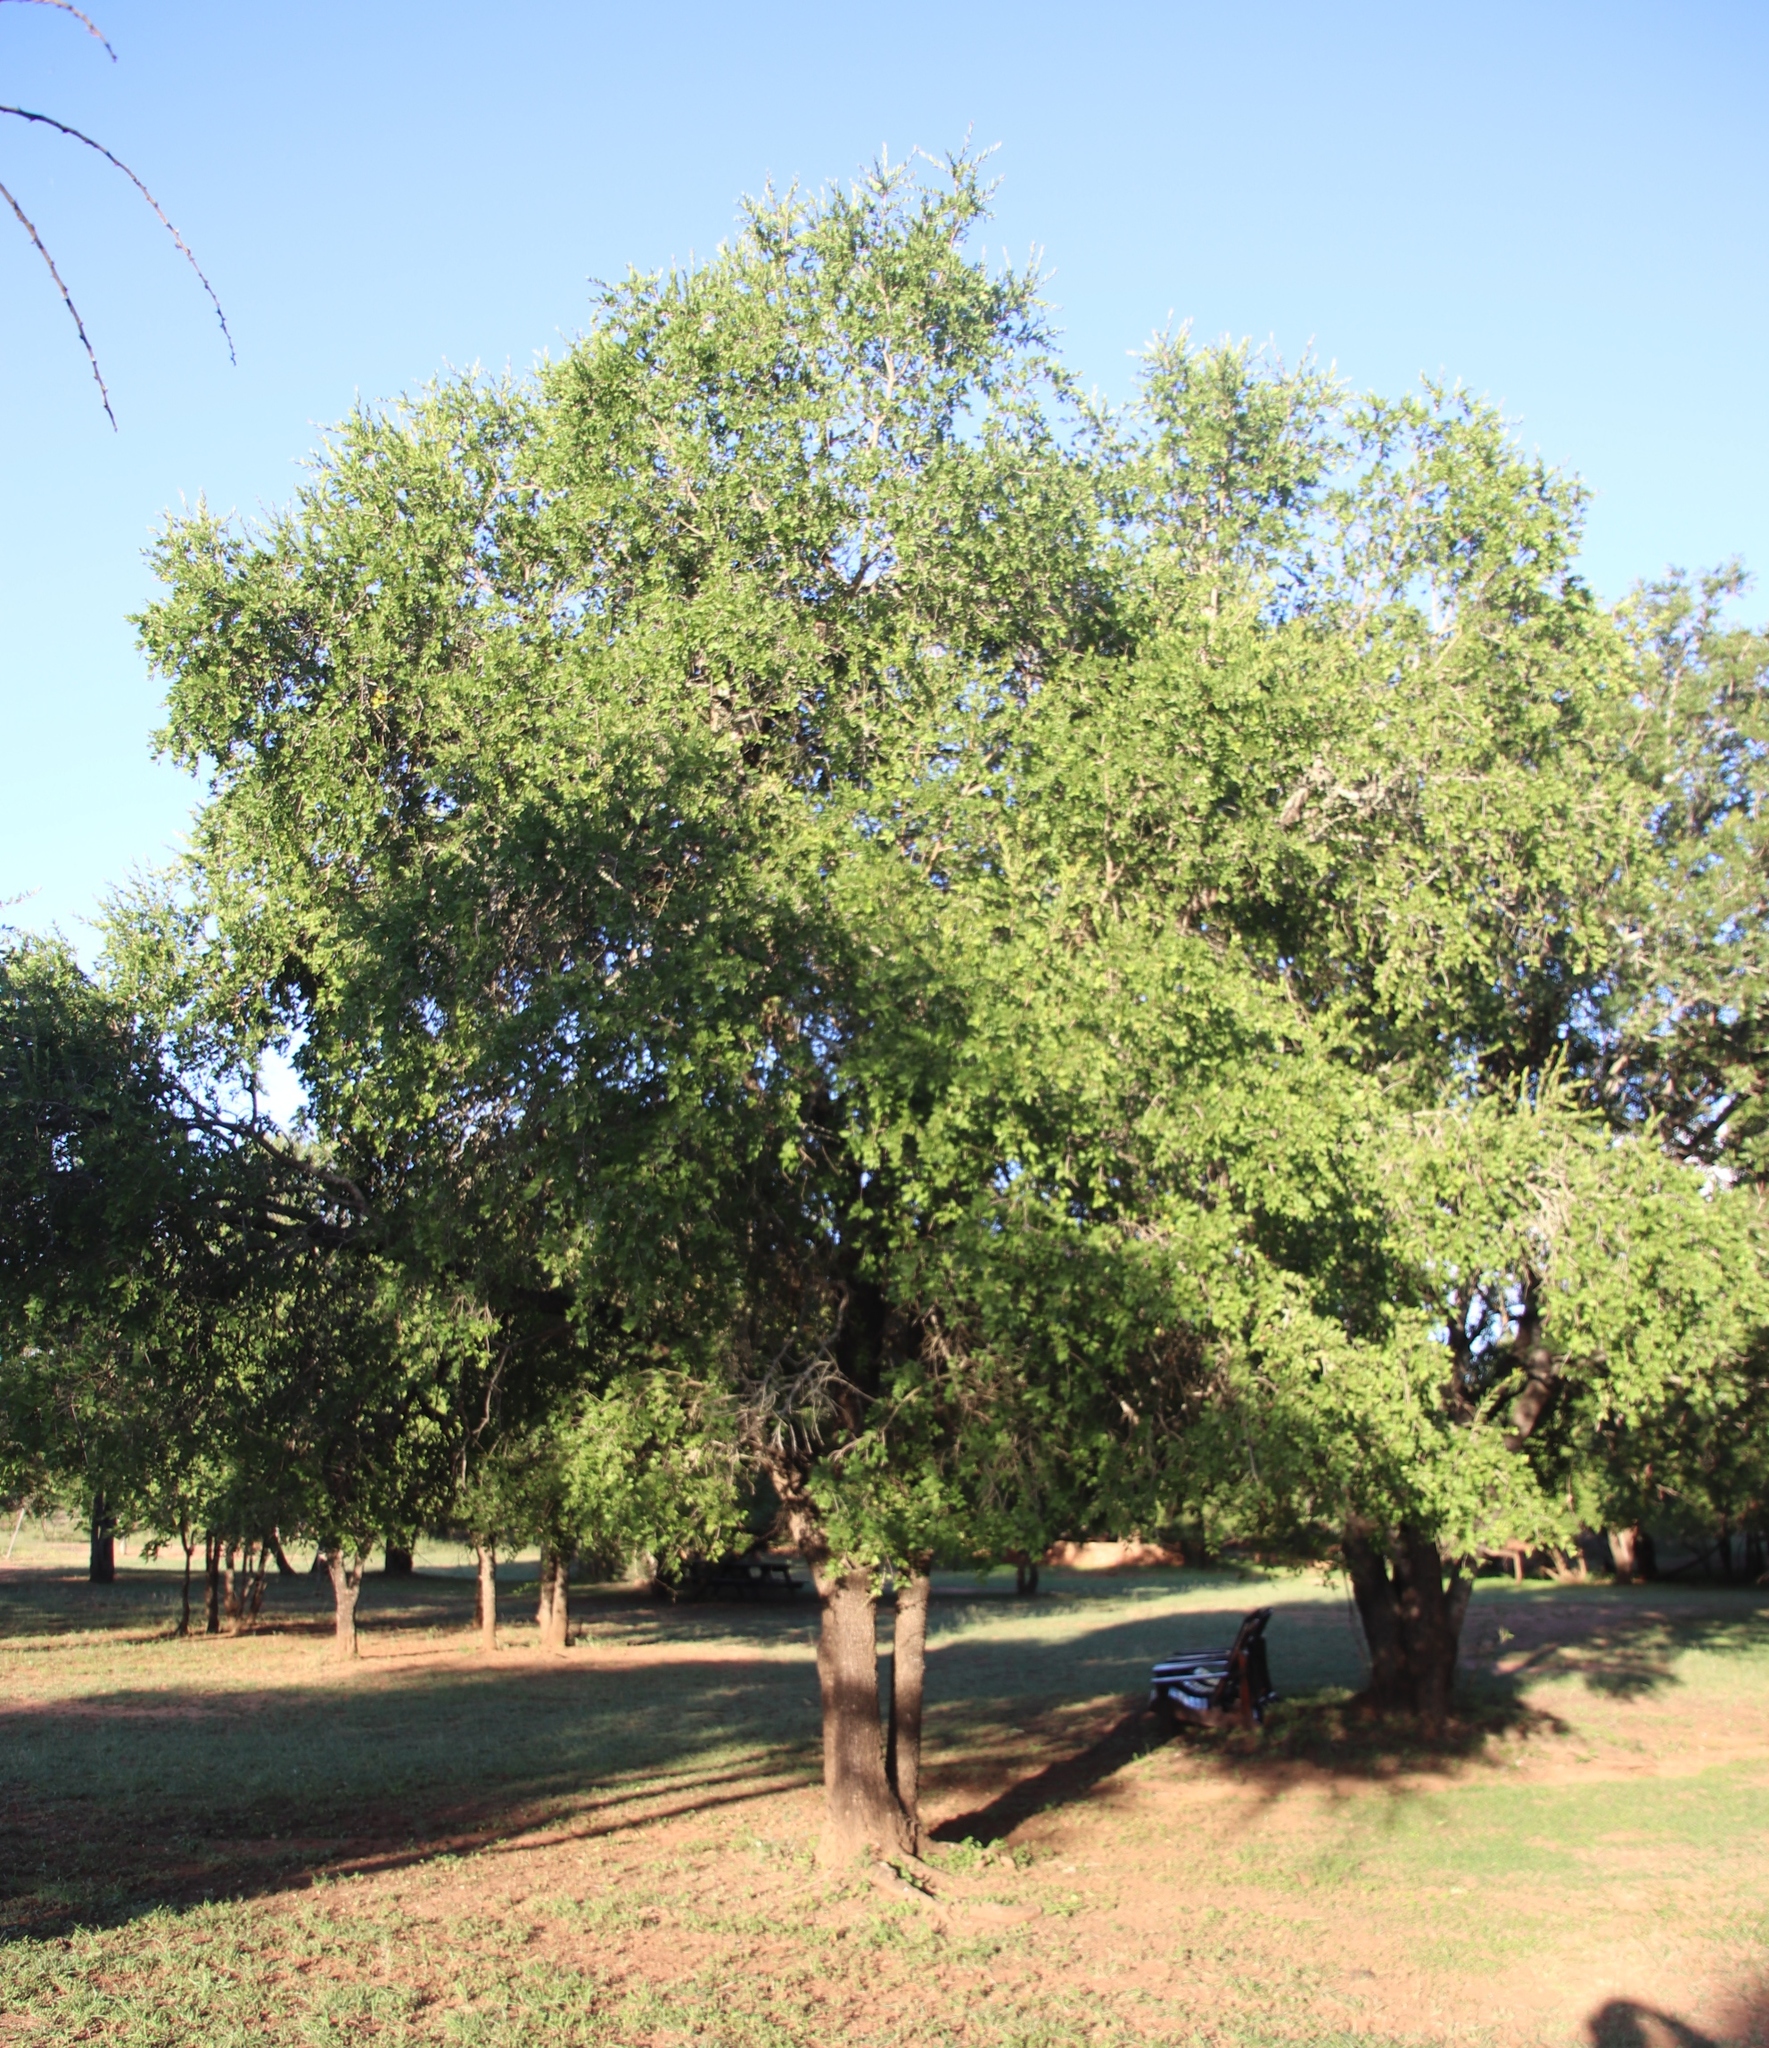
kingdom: Plantae
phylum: Tracheophyta
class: Magnoliopsida
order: Malpighiales
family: Euphorbiaceae
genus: Spirostachys
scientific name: Spirostachys africana
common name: Tamboti
